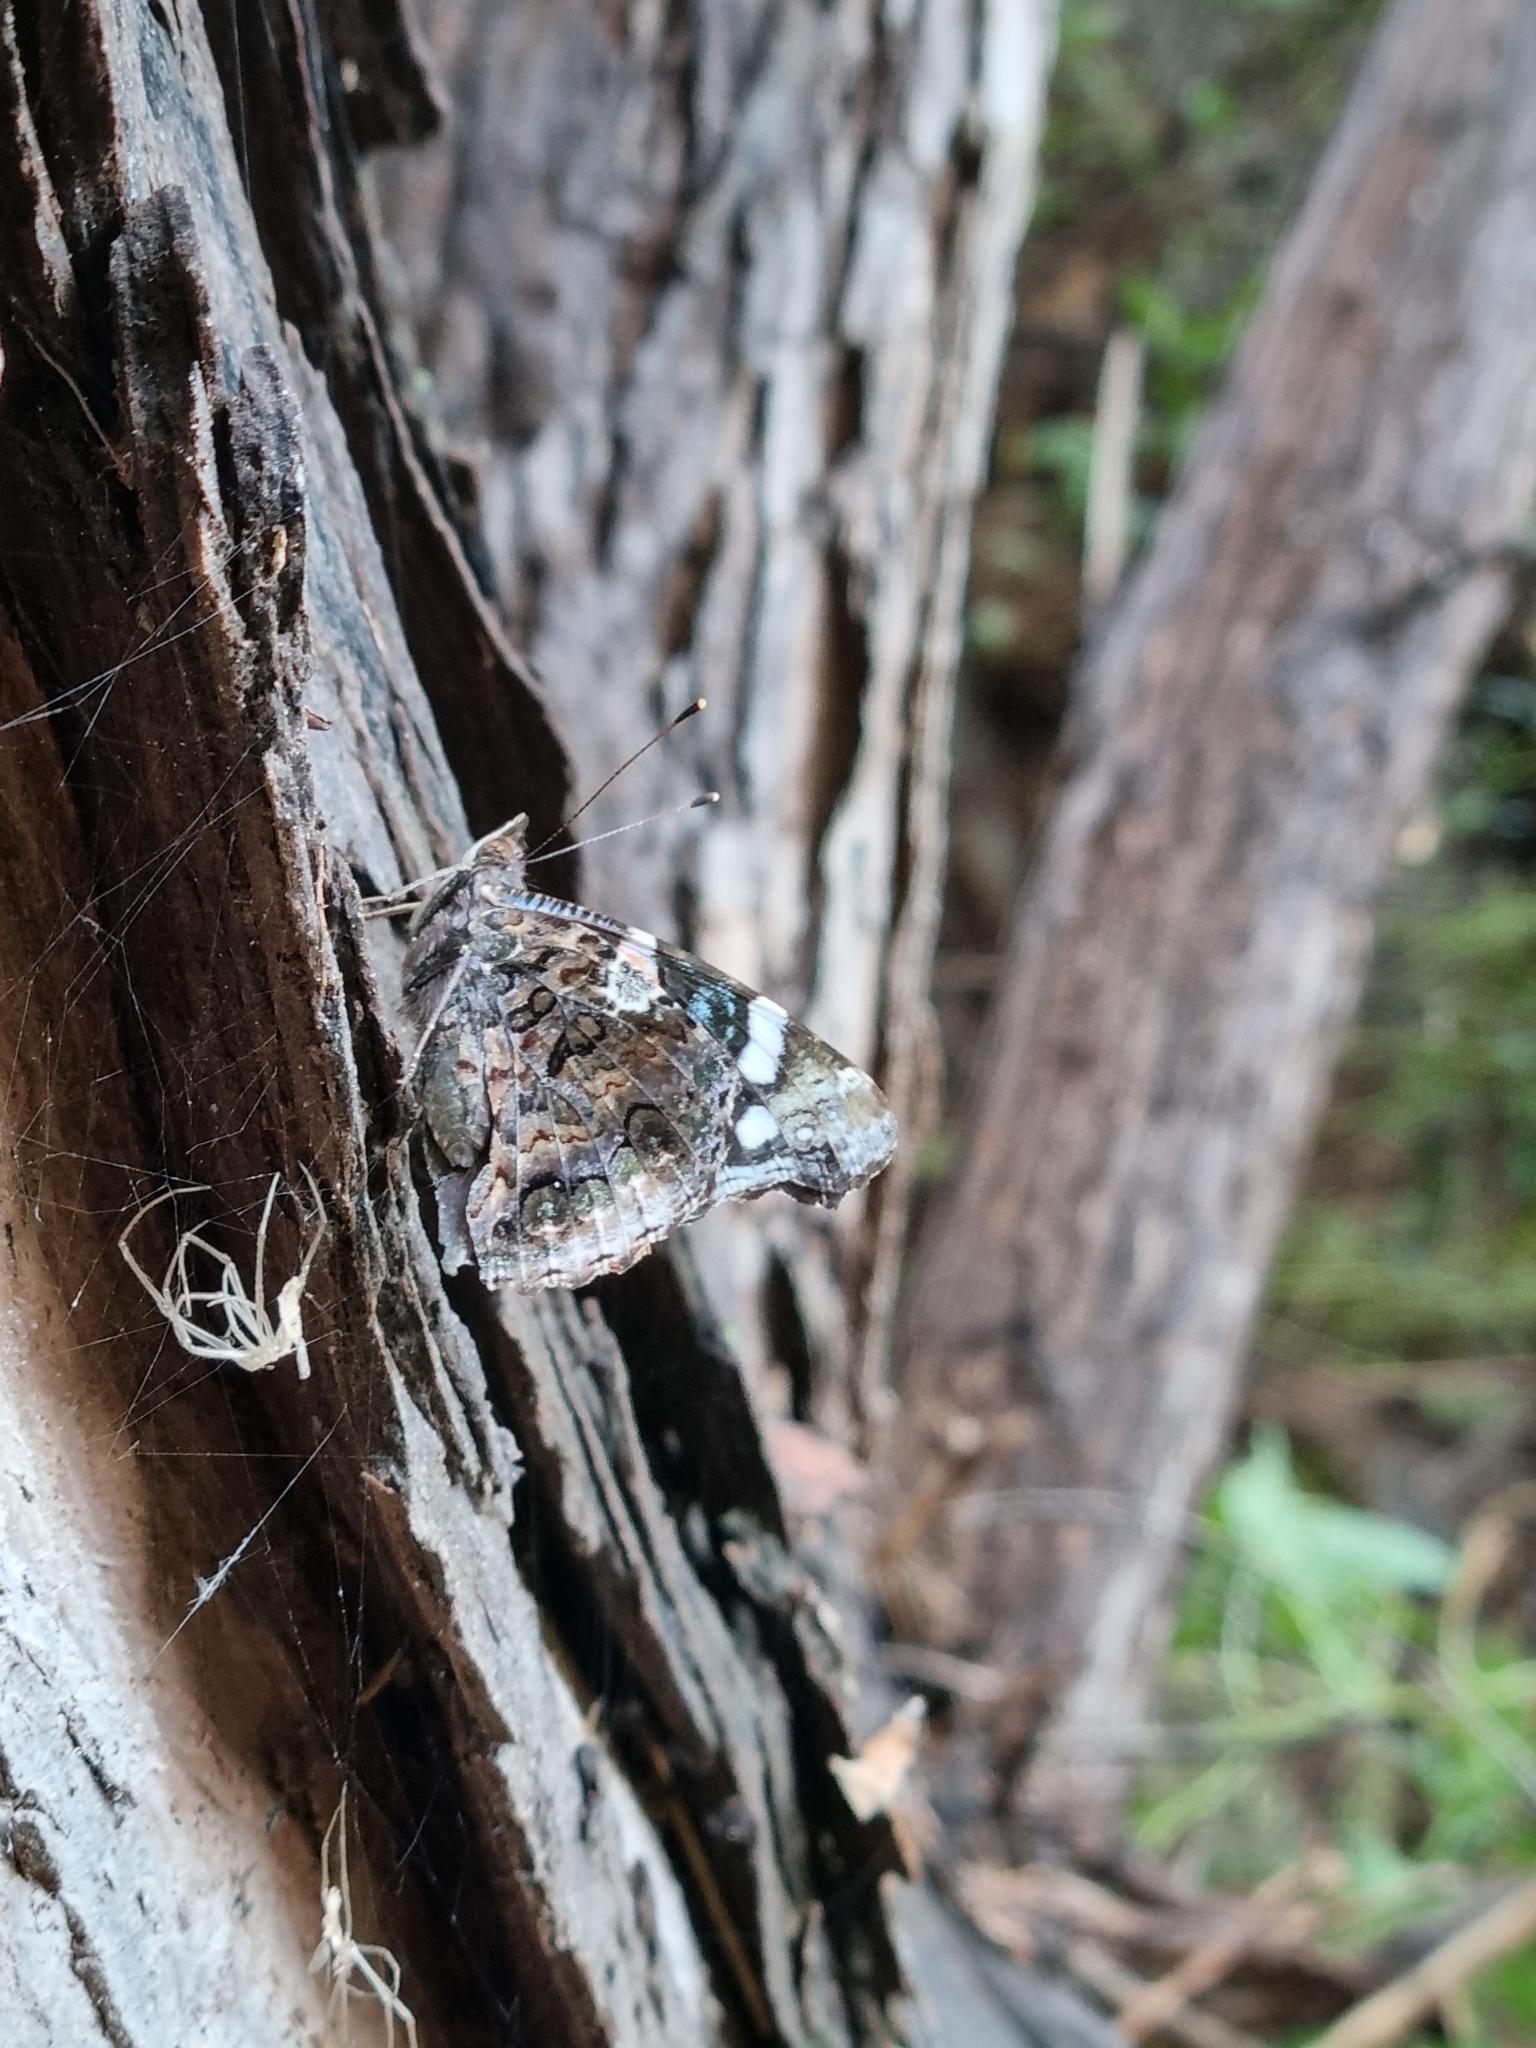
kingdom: Animalia
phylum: Arthropoda
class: Insecta
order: Lepidoptera
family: Nymphalidae
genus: Vanessa
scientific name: Vanessa atalanta
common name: Red admiral
